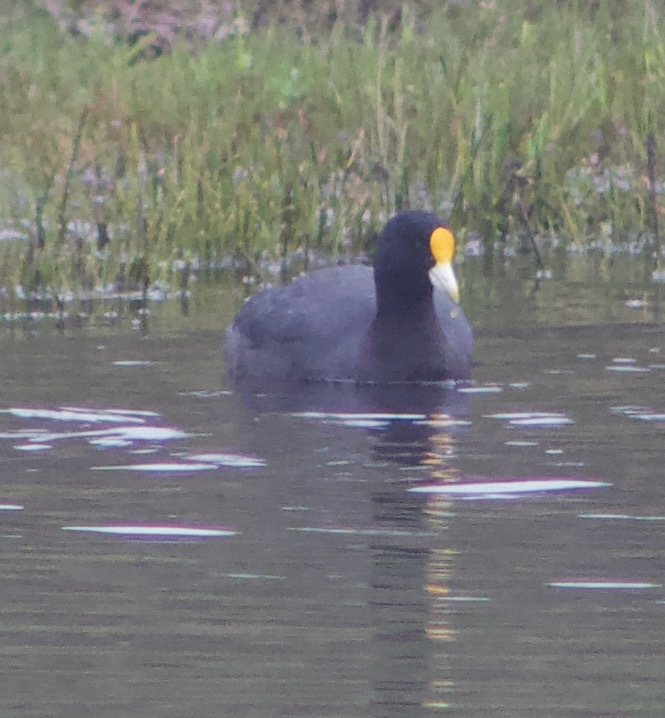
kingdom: Animalia
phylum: Chordata
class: Aves
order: Gruiformes
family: Rallidae
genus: Fulica
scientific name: Fulica leucoptera
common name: White-winged coot
